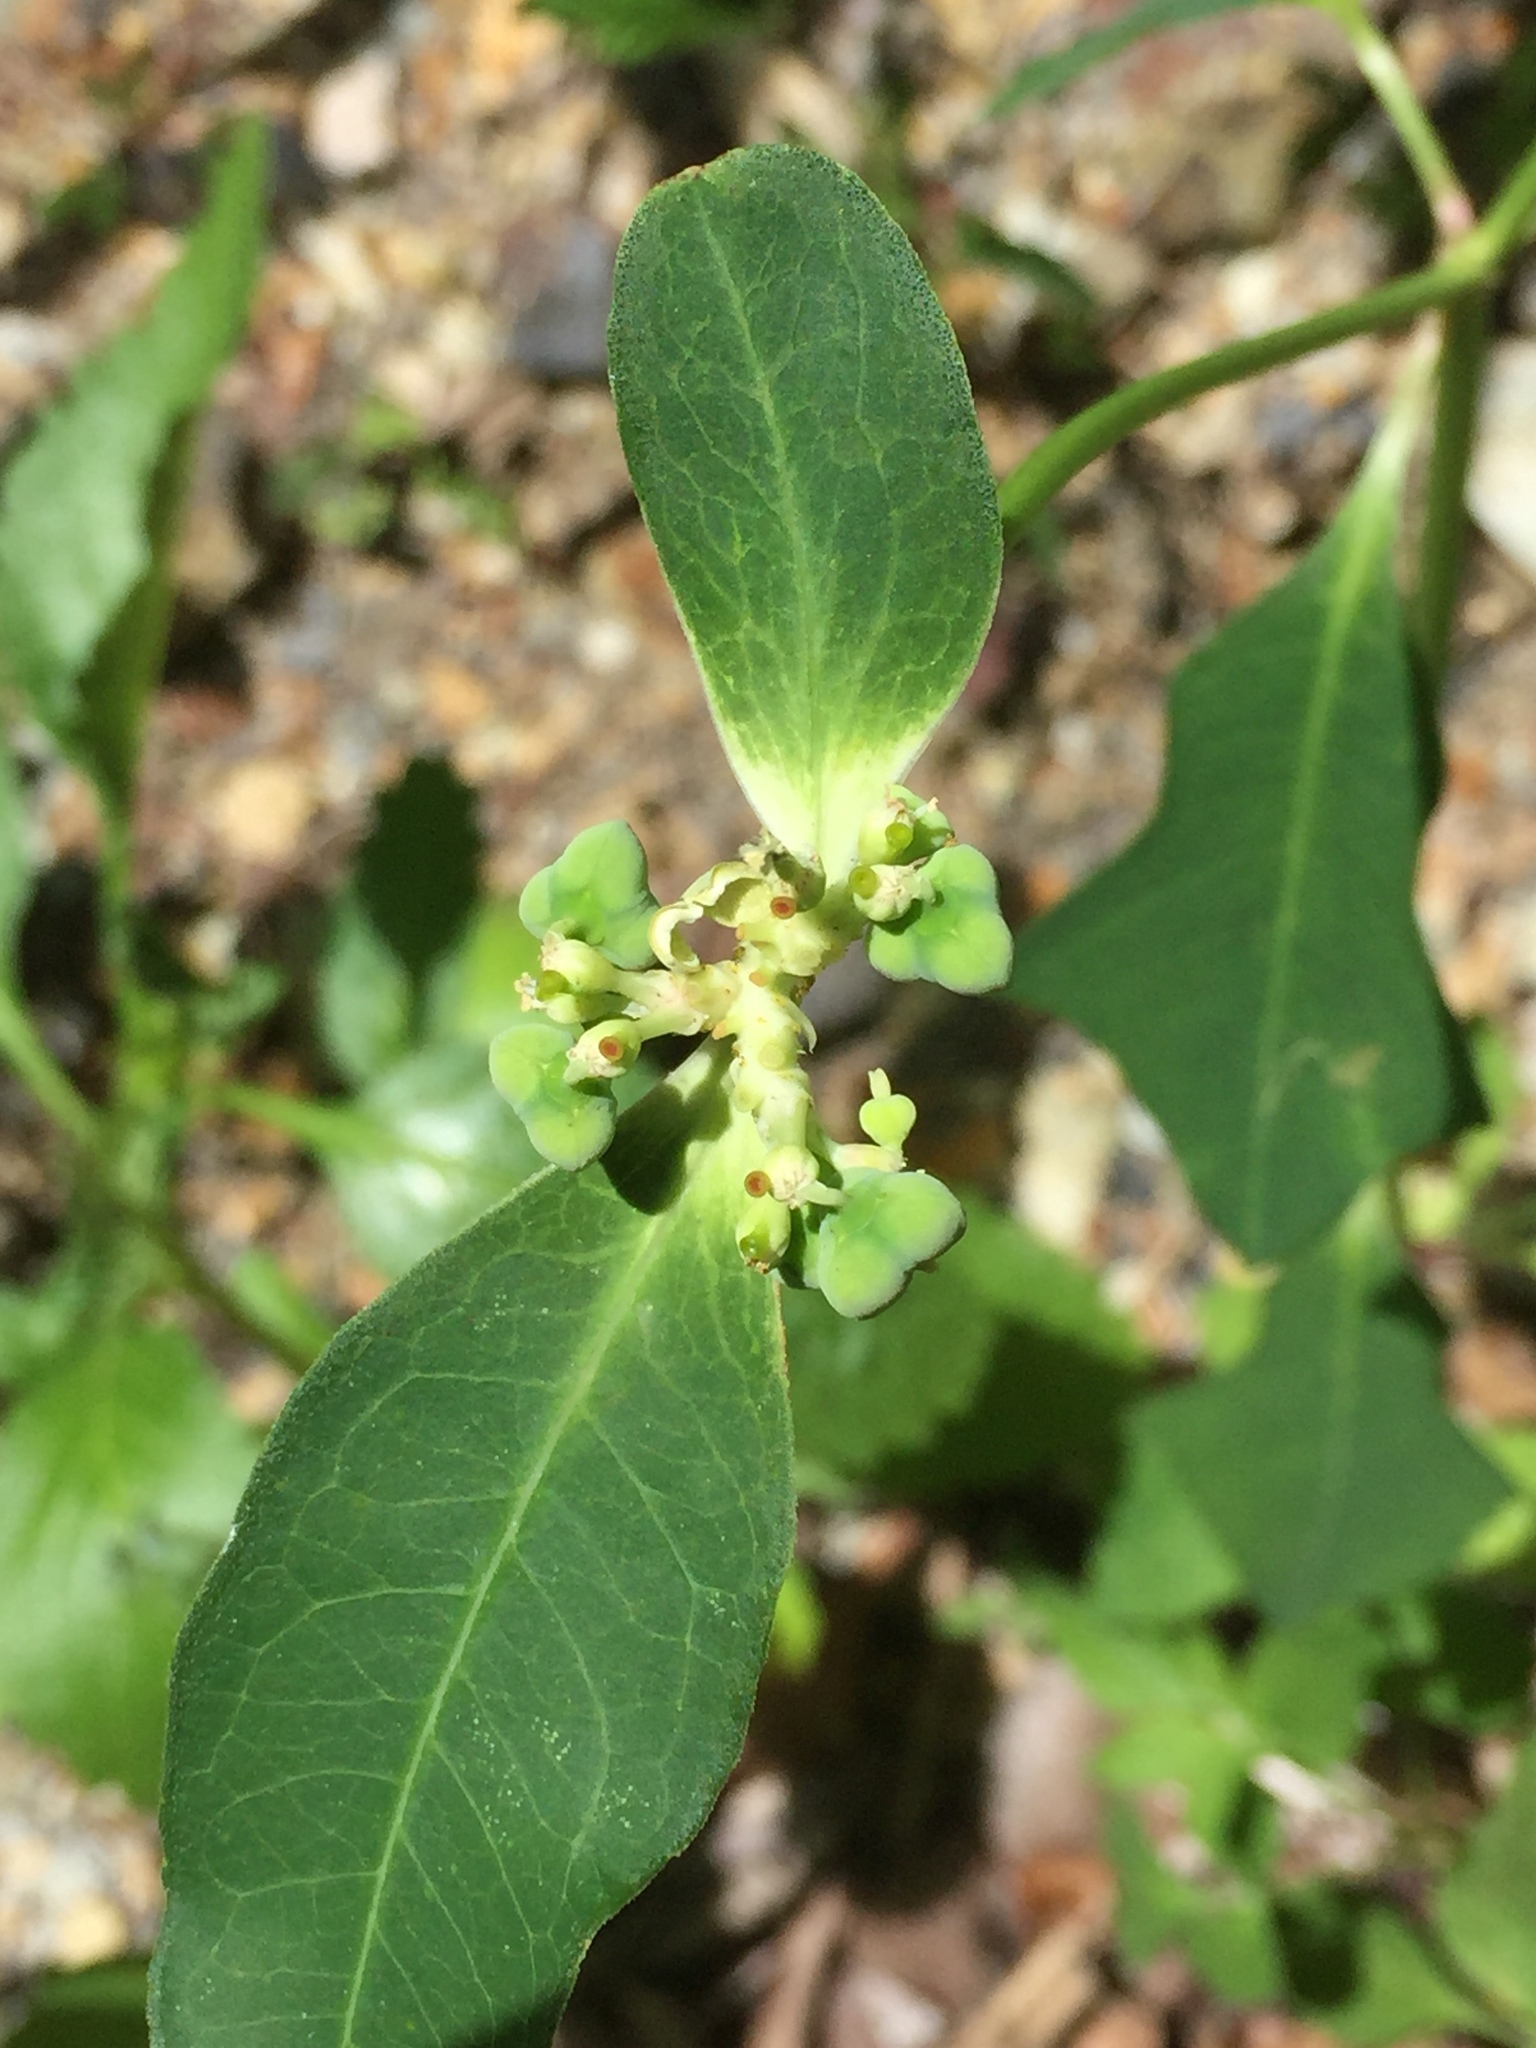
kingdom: Plantae
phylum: Tracheophyta
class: Magnoliopsida
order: Malpighiales
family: Euphorbiaceae
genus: Euphorbia
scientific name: Euphorbia heterophylla
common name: Mexican fireplant
